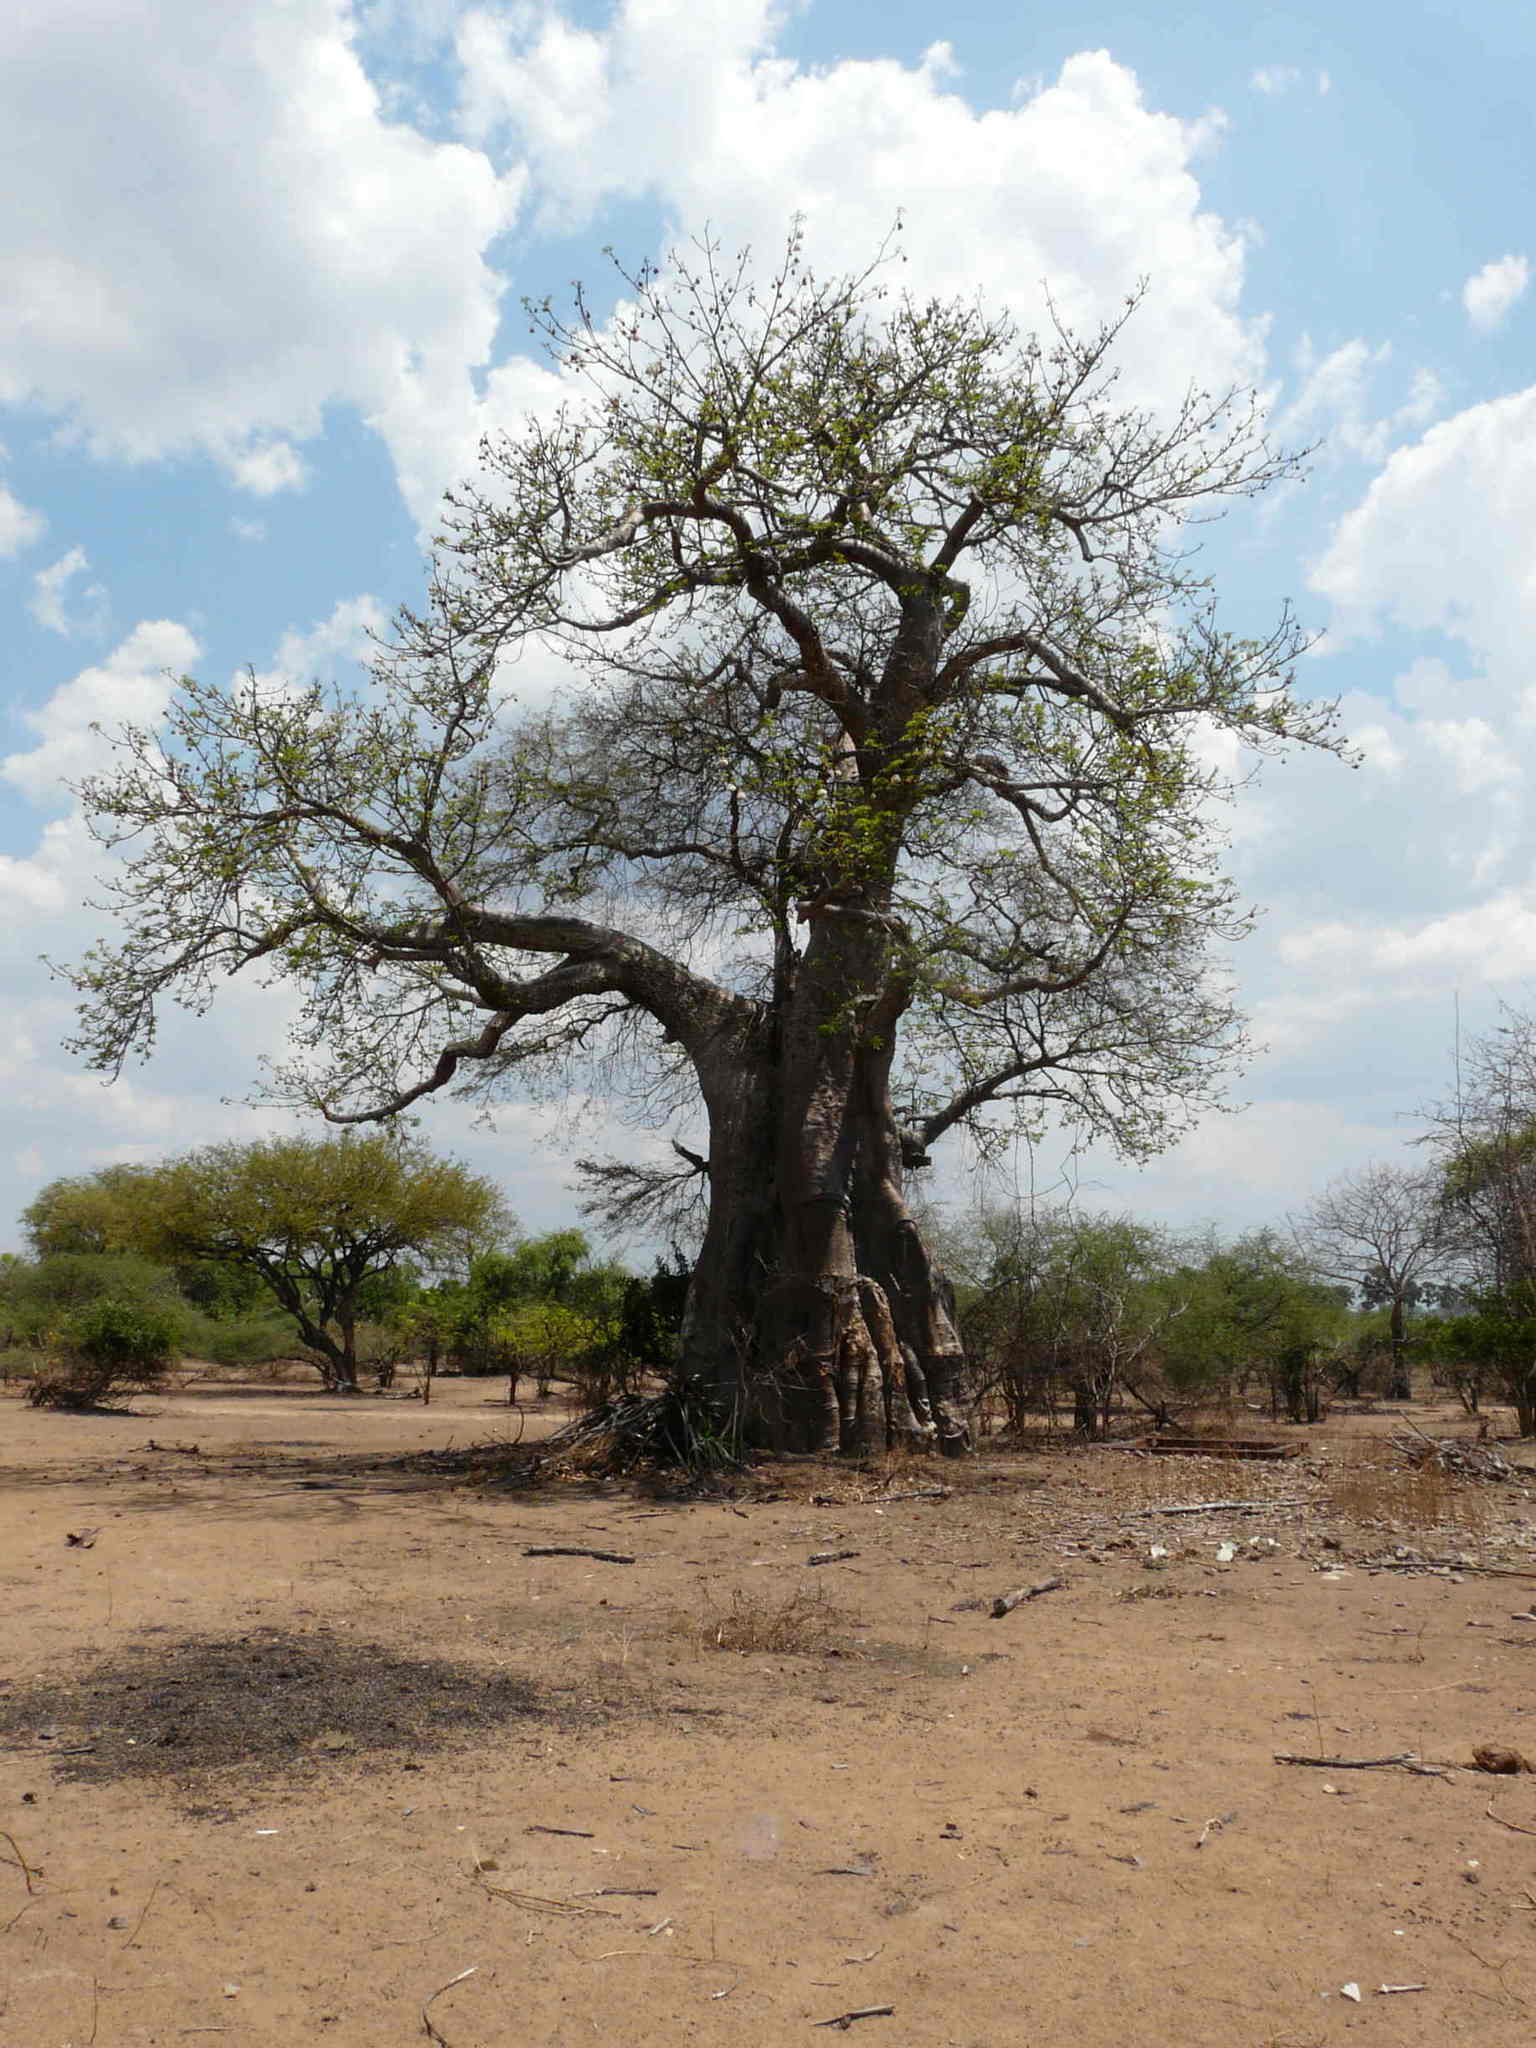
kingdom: Plantae
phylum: Tracheophyta
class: Magnoliopsida
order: Malvales
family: Malvaceae
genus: Adansonia
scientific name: Adansonia digitata
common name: Dead-rat-tree
